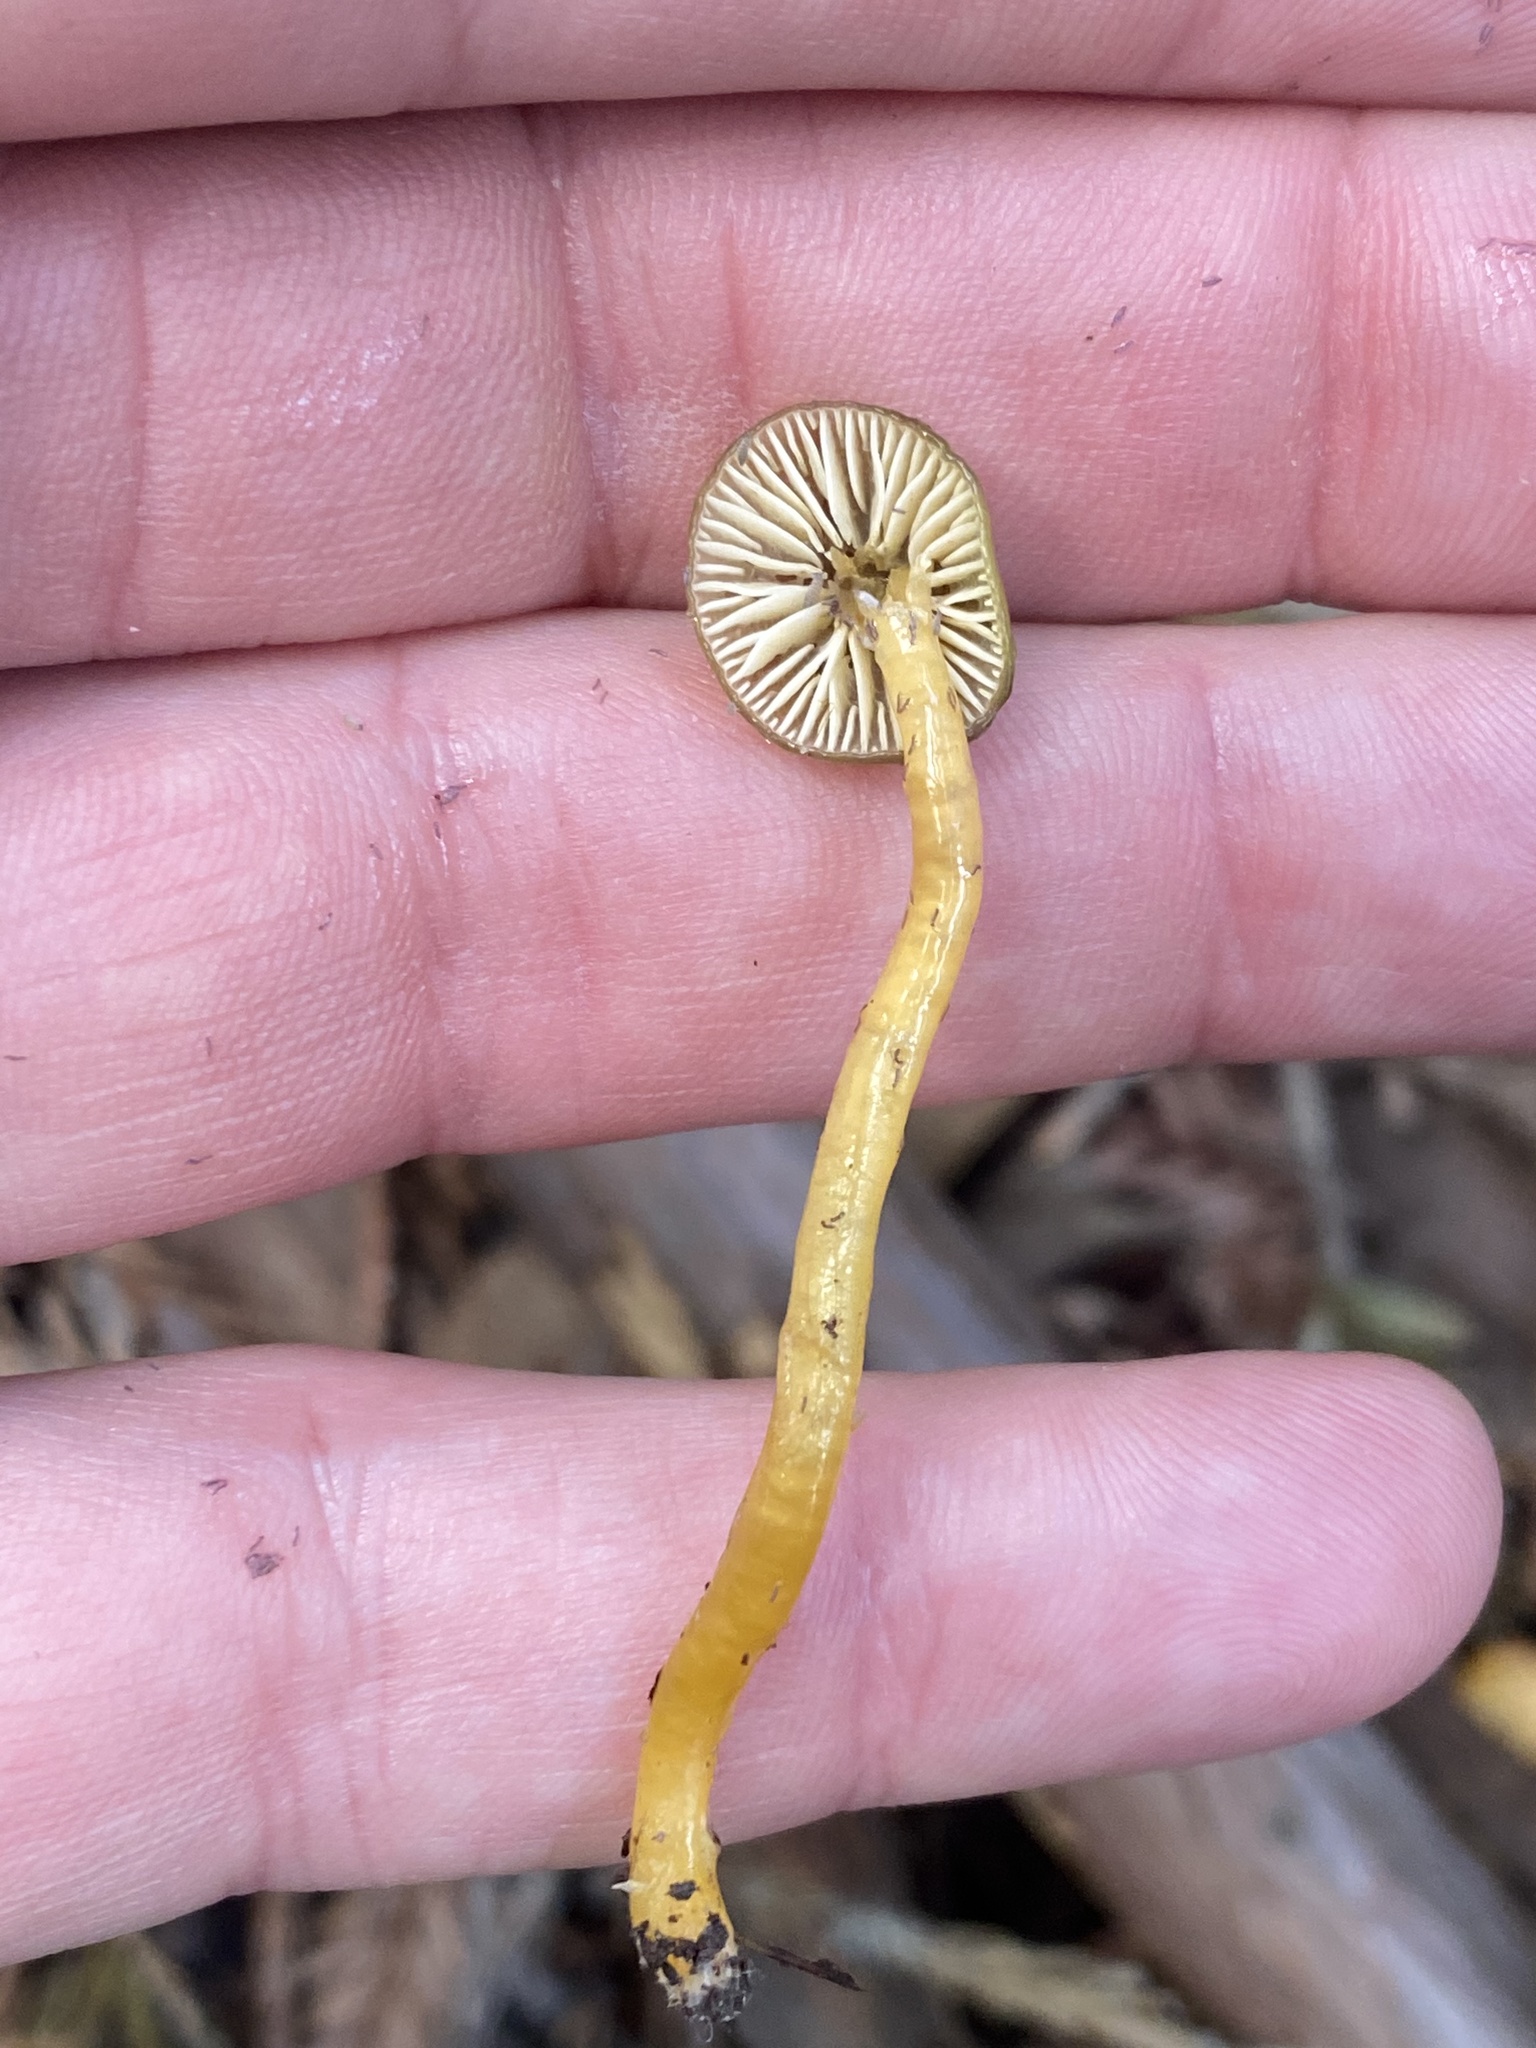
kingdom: Fungi
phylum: Basidiomycota
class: Agaricomycetes
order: Agaricales
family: Hygrophoraceae
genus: Gliophorus
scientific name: Gliophorus psittacinus
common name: Parrot wax-cap
